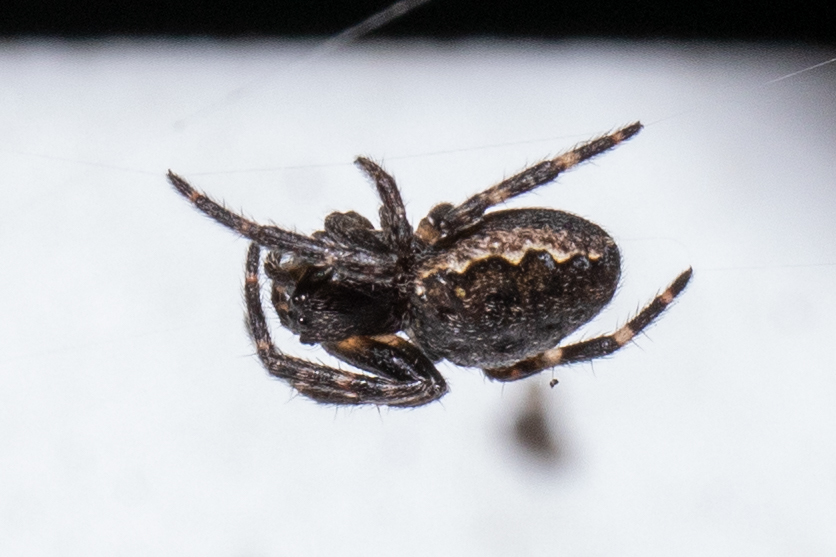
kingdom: Animalia
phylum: Arthropoda
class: Arachnida
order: Araneae
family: Araneidae
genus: Nuctenea
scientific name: Nuctenea umbratica
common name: Toad spider
